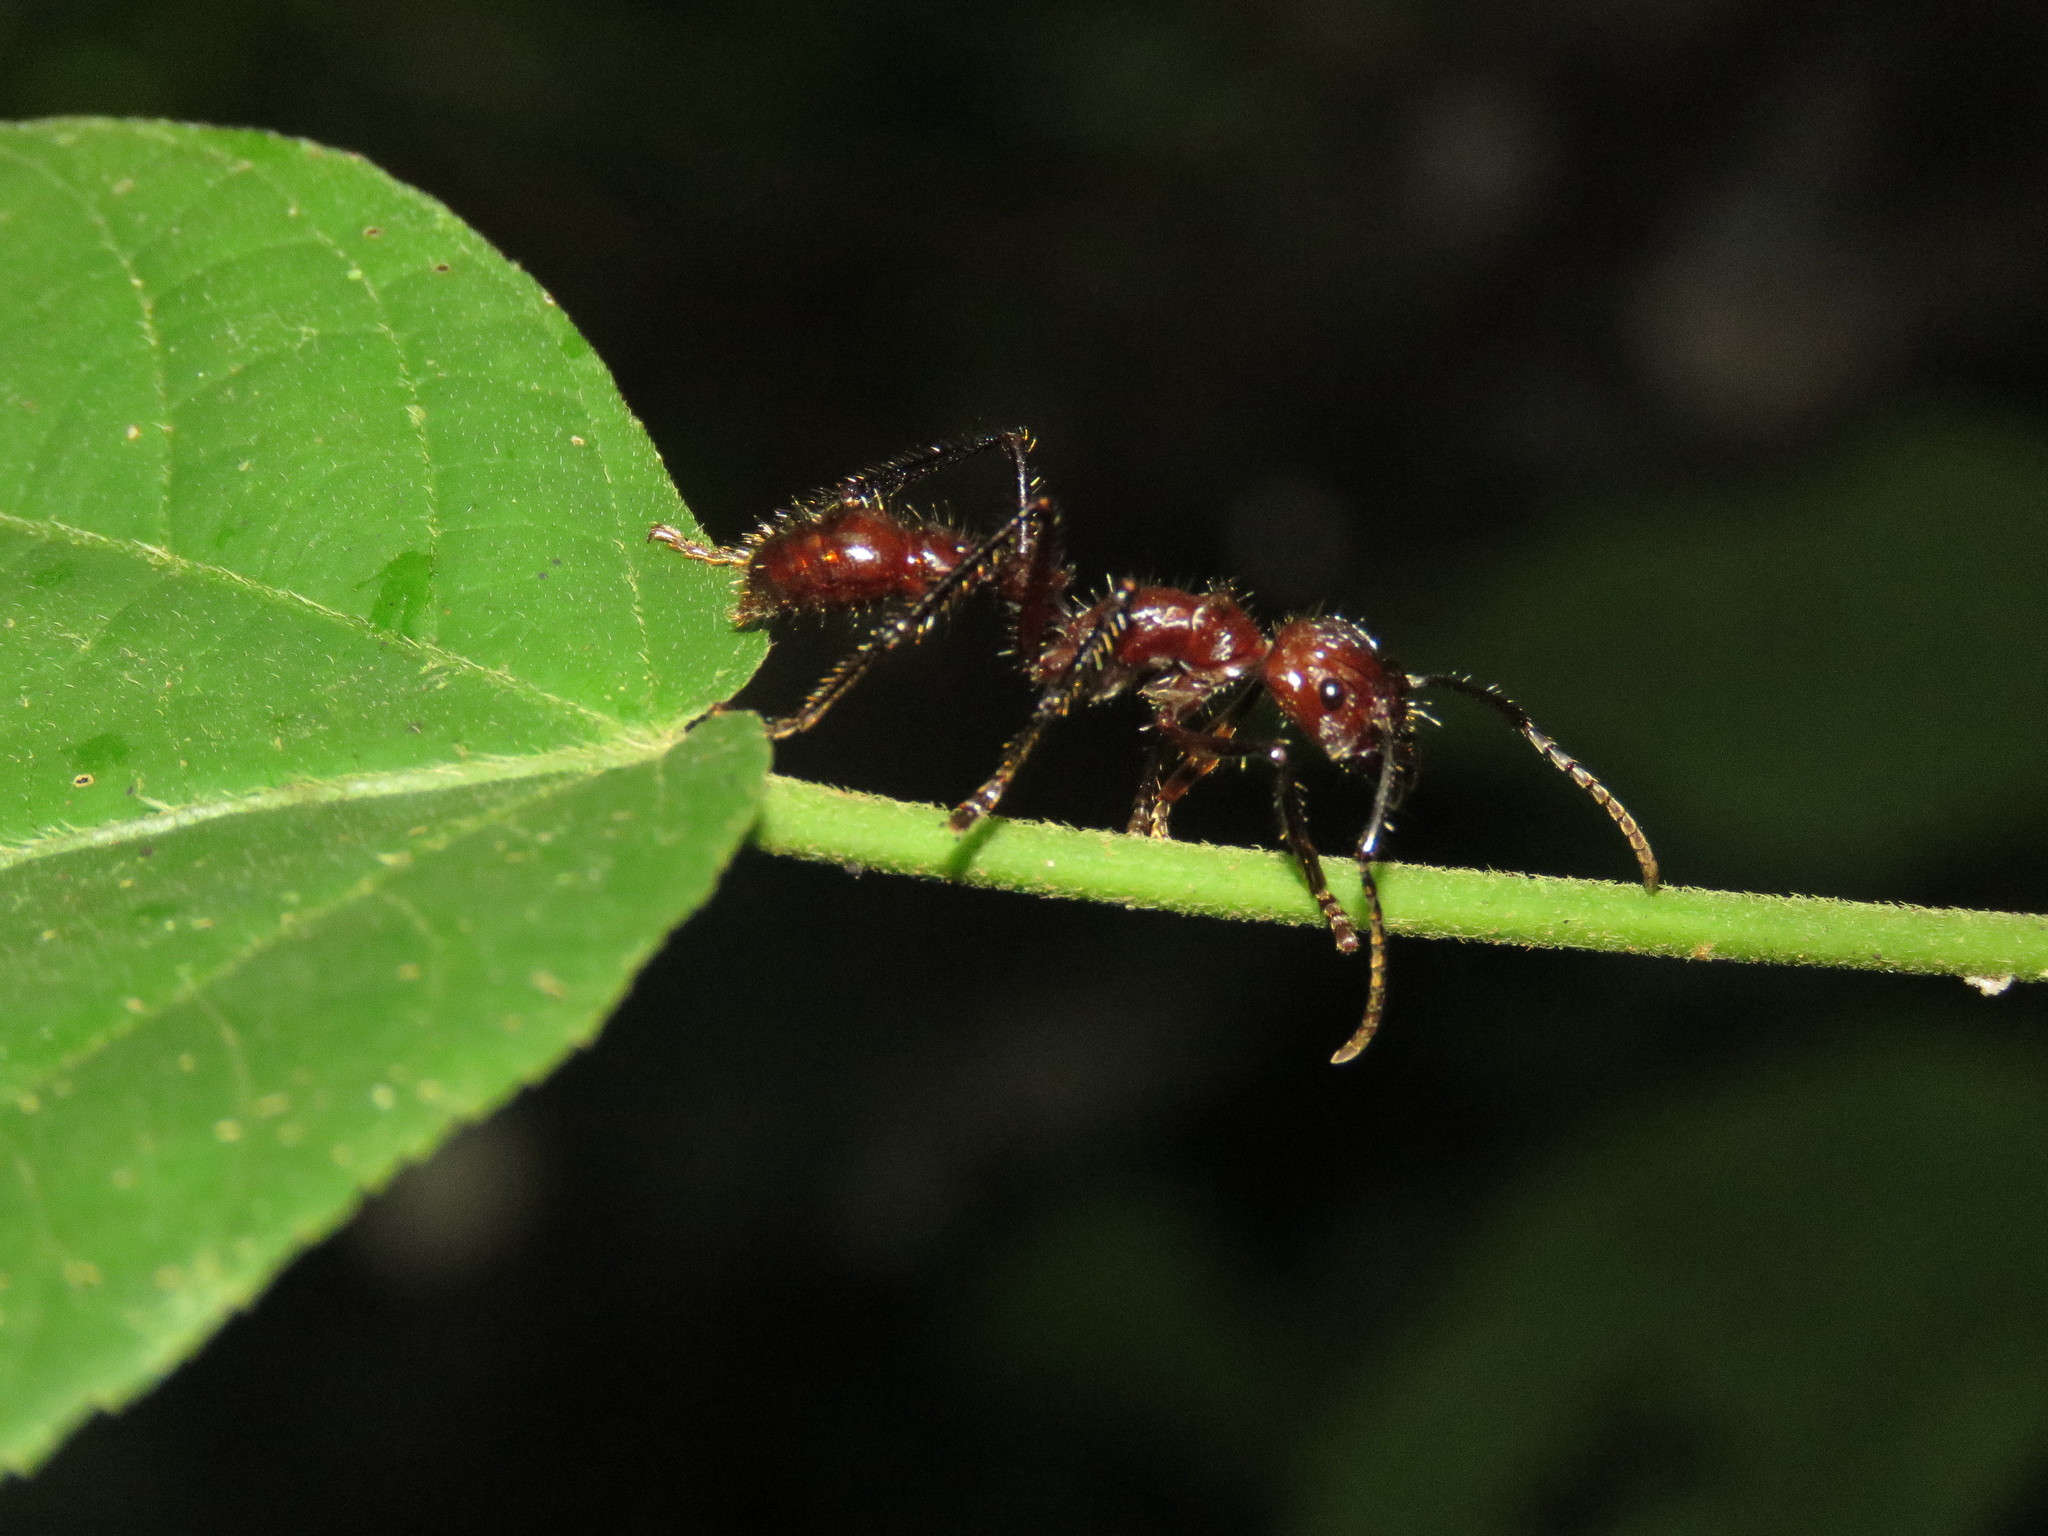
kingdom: Animalia
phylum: Arthropoda
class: Insecta
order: Hymenoptera
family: Formicidae
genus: Paraponera
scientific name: Paraponera clavata
